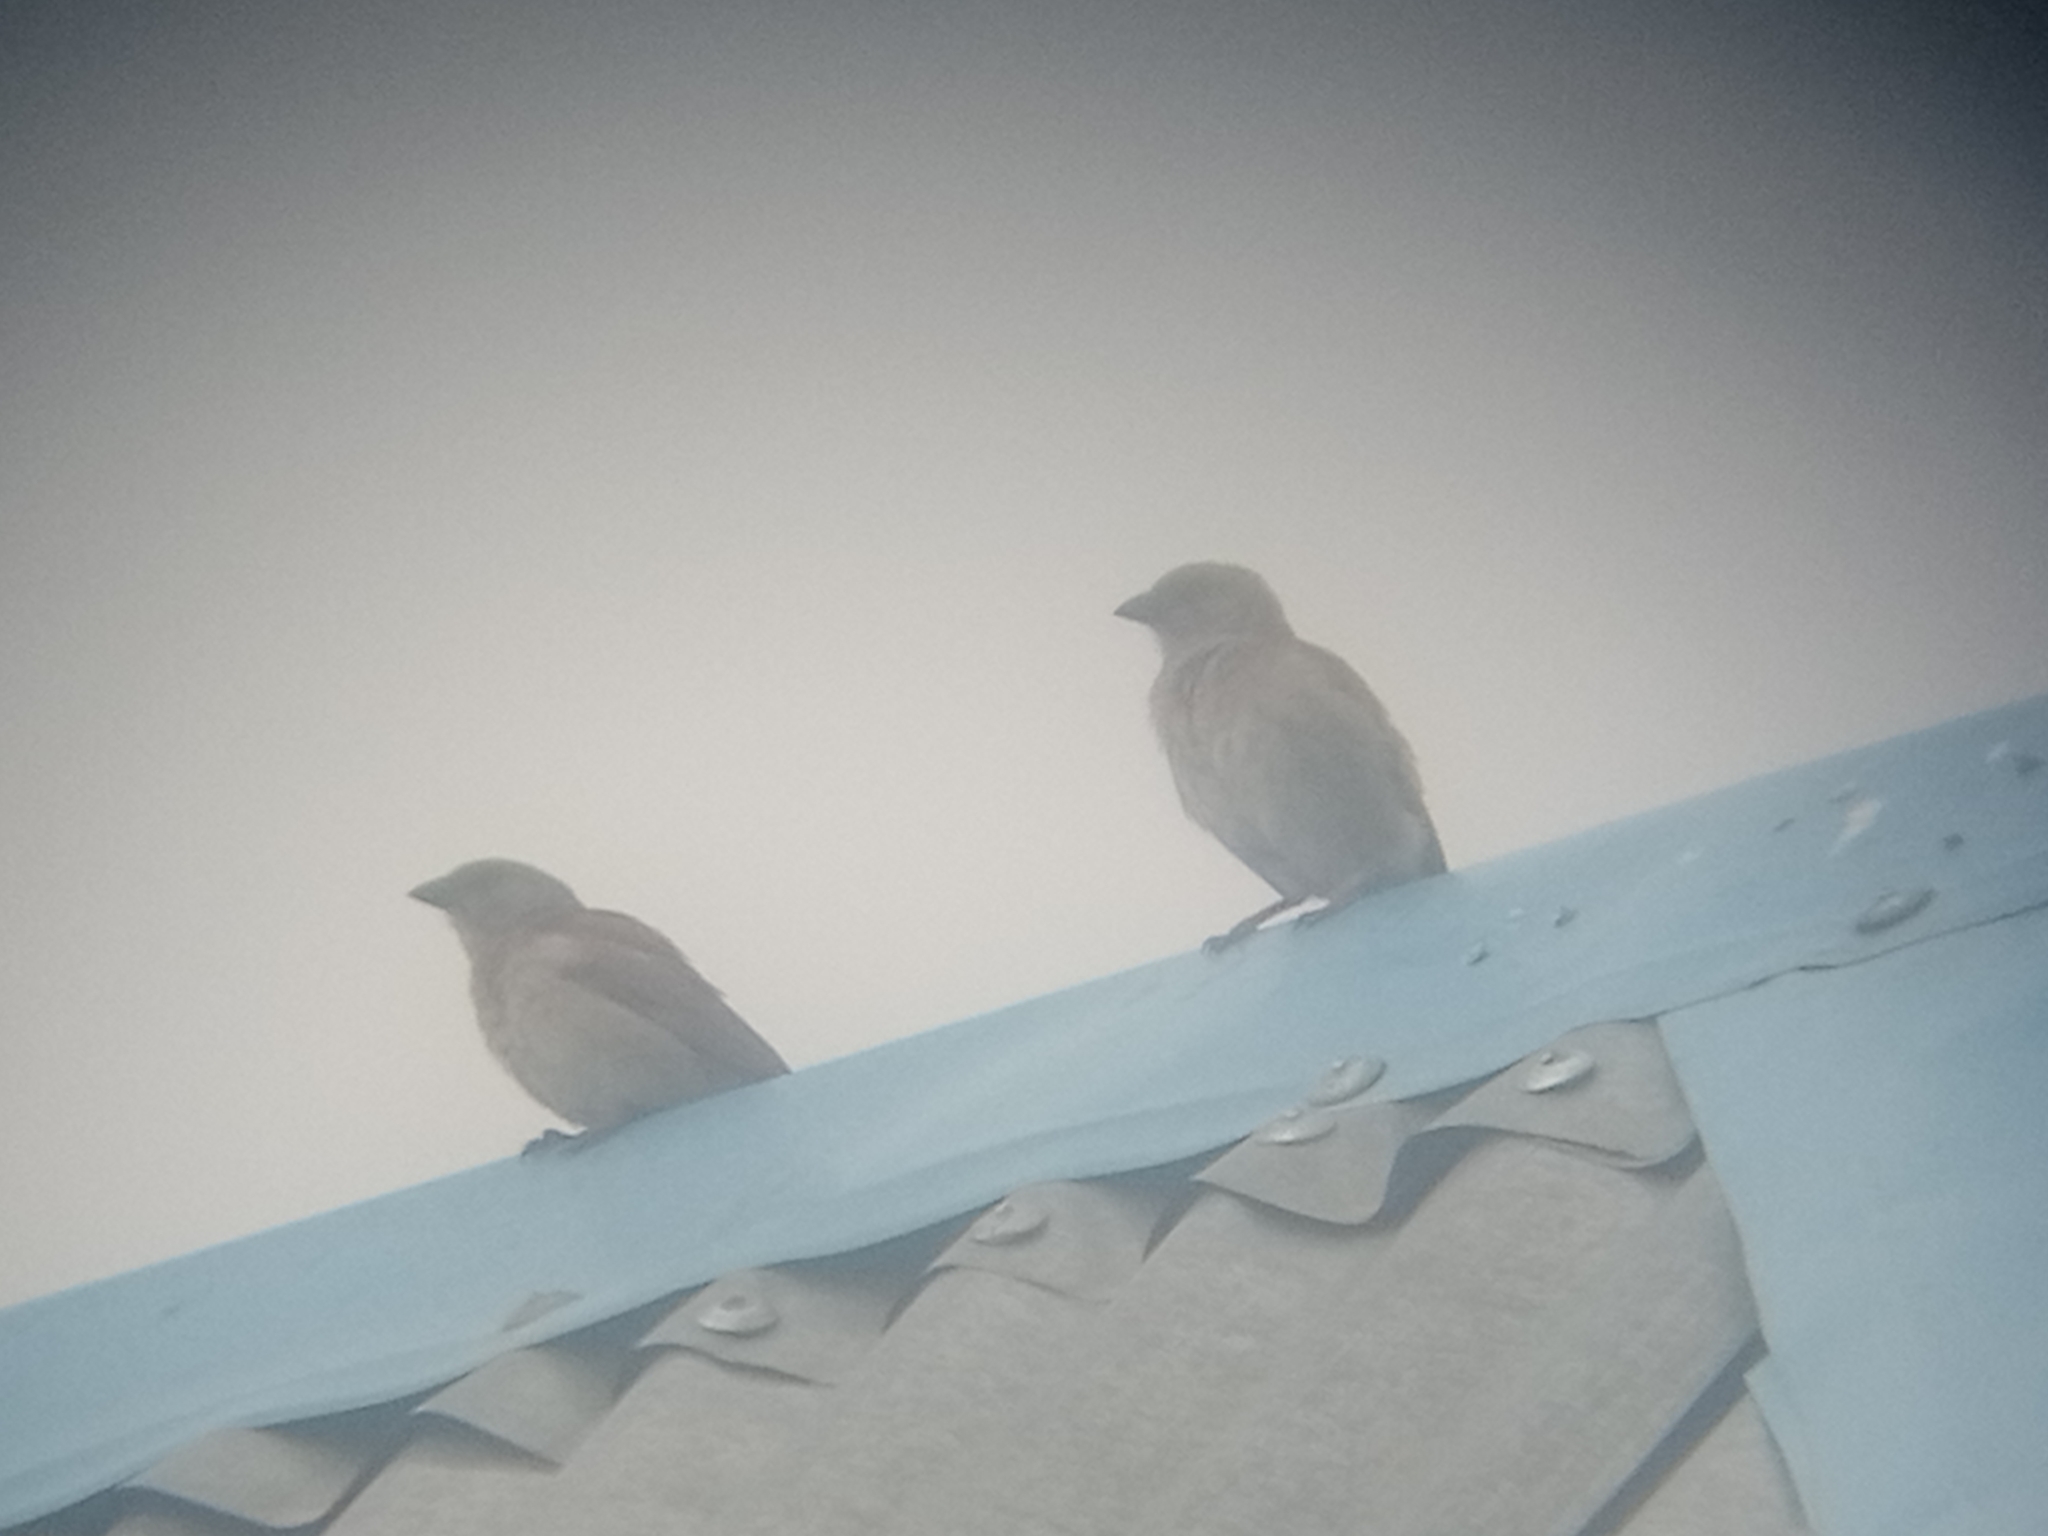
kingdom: Animalia
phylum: Chordata
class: Aves
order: Passeriformes
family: Passeridae
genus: Passer
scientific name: Passer griseus
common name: Northern grey-headed sparrow
